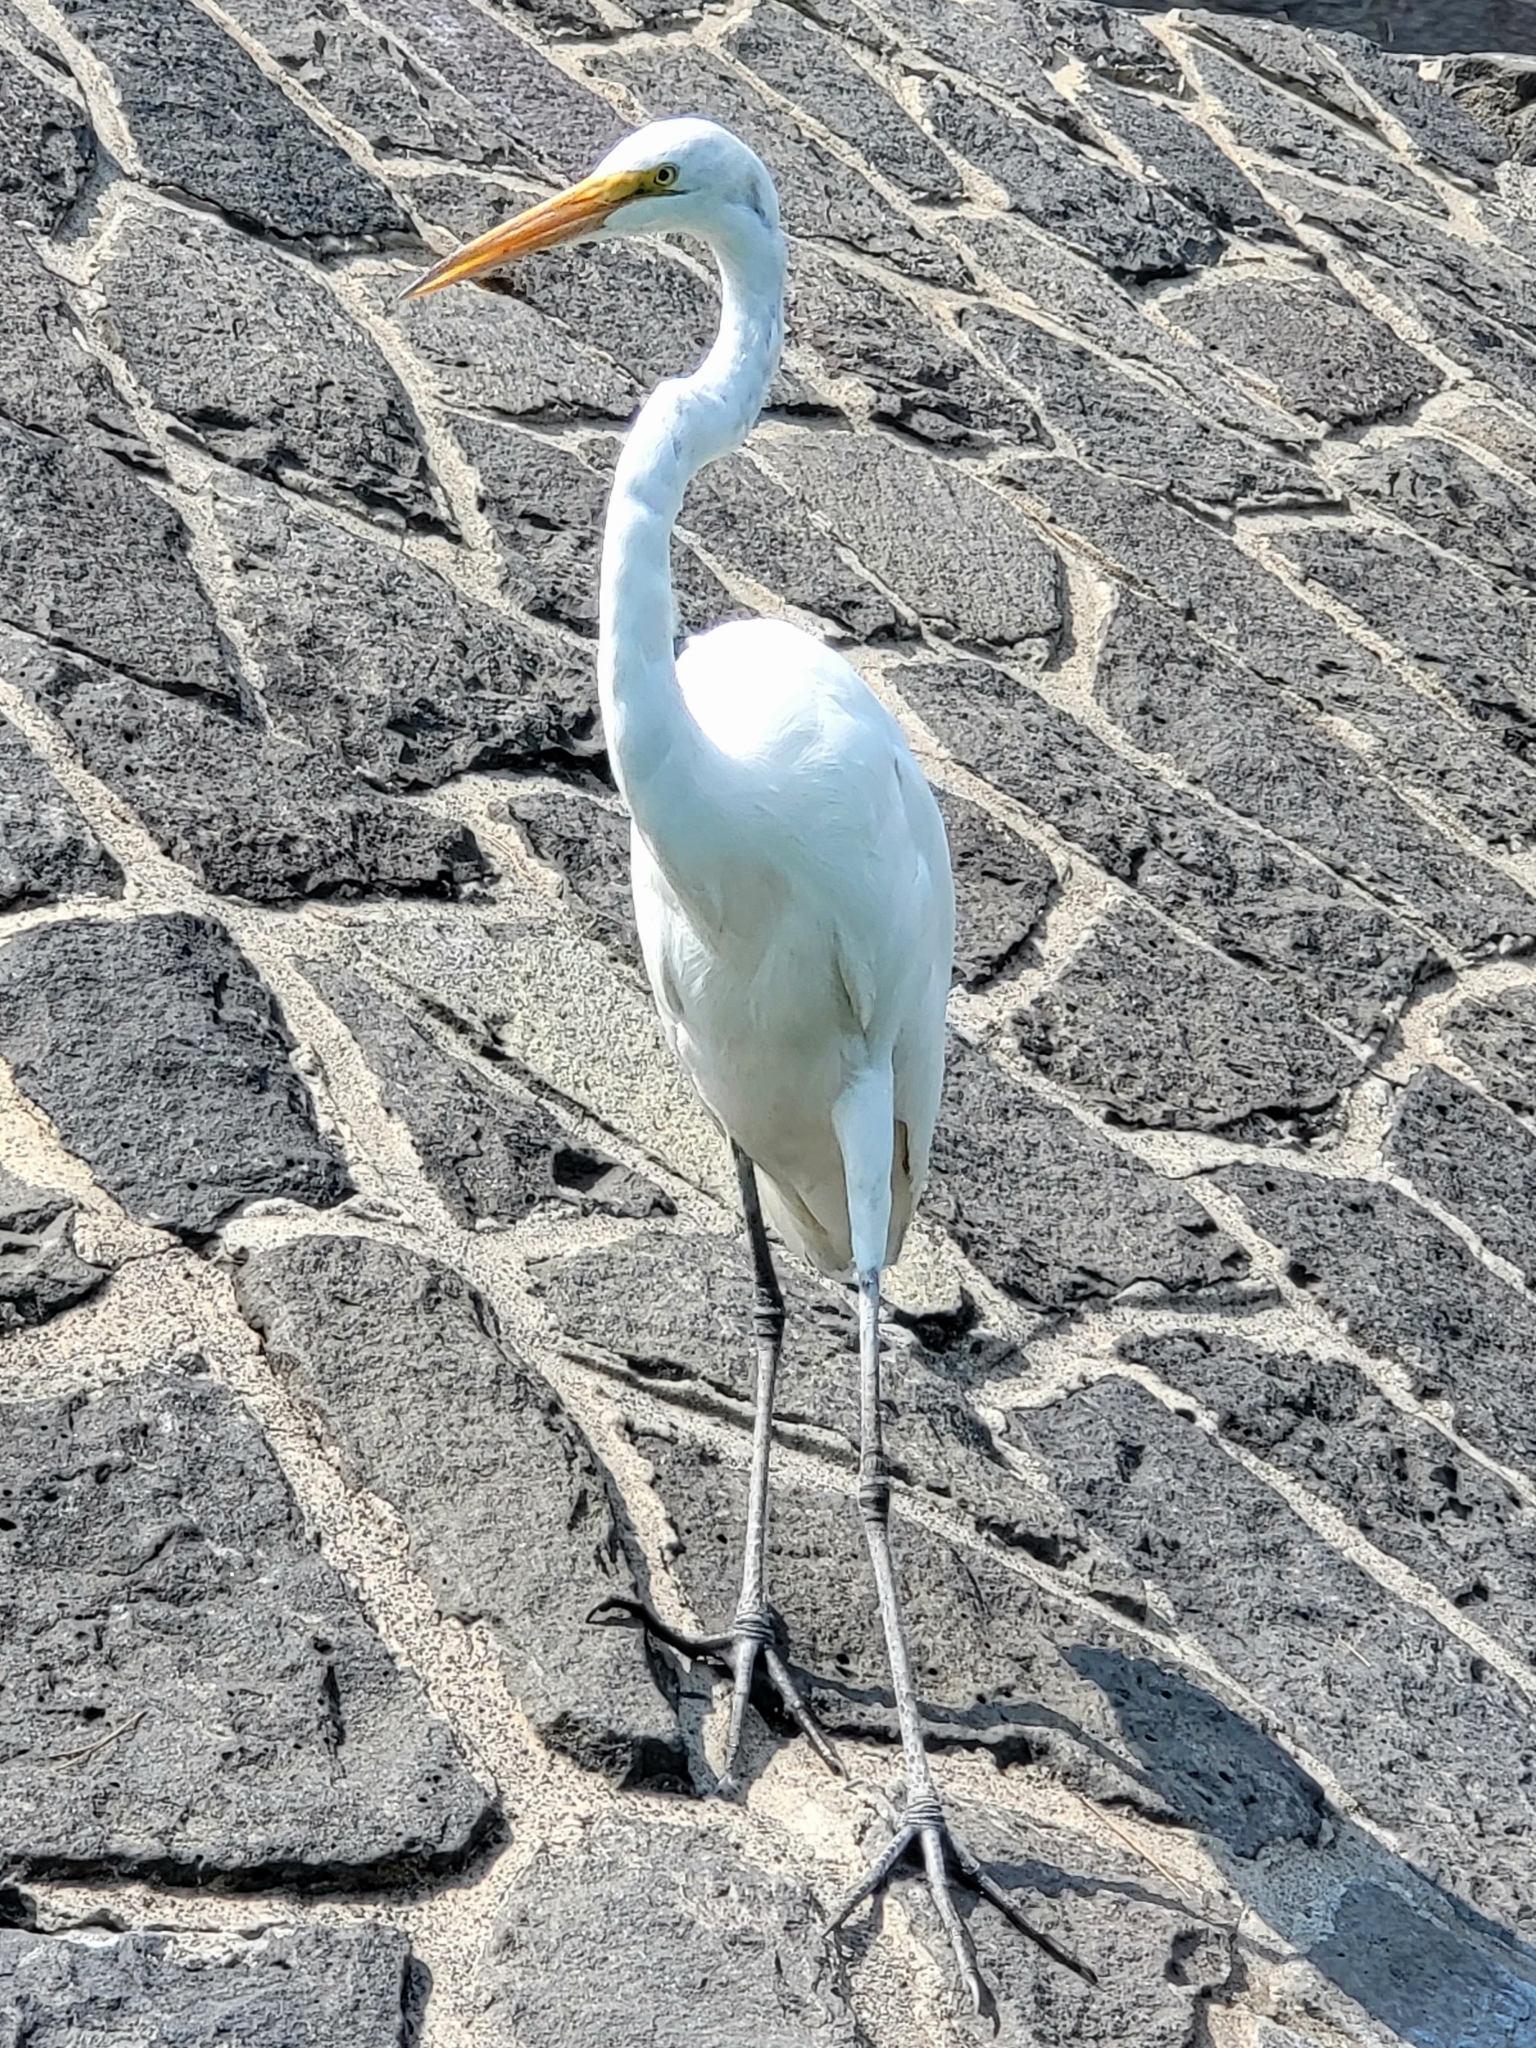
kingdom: Animalia
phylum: Chordata
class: Aves
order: Pelecaniformes
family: Ardeidae
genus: Ardea
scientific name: Ardea alba
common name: Great egret
